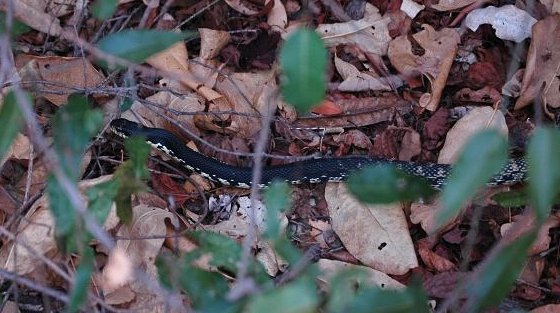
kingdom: Animalia
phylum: Chordata
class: Squamata
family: Pseudoxyrhophiidae
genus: Leioheterodon
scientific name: Leioheterodon madagascariensis
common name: Malagasy giant hognose snake
